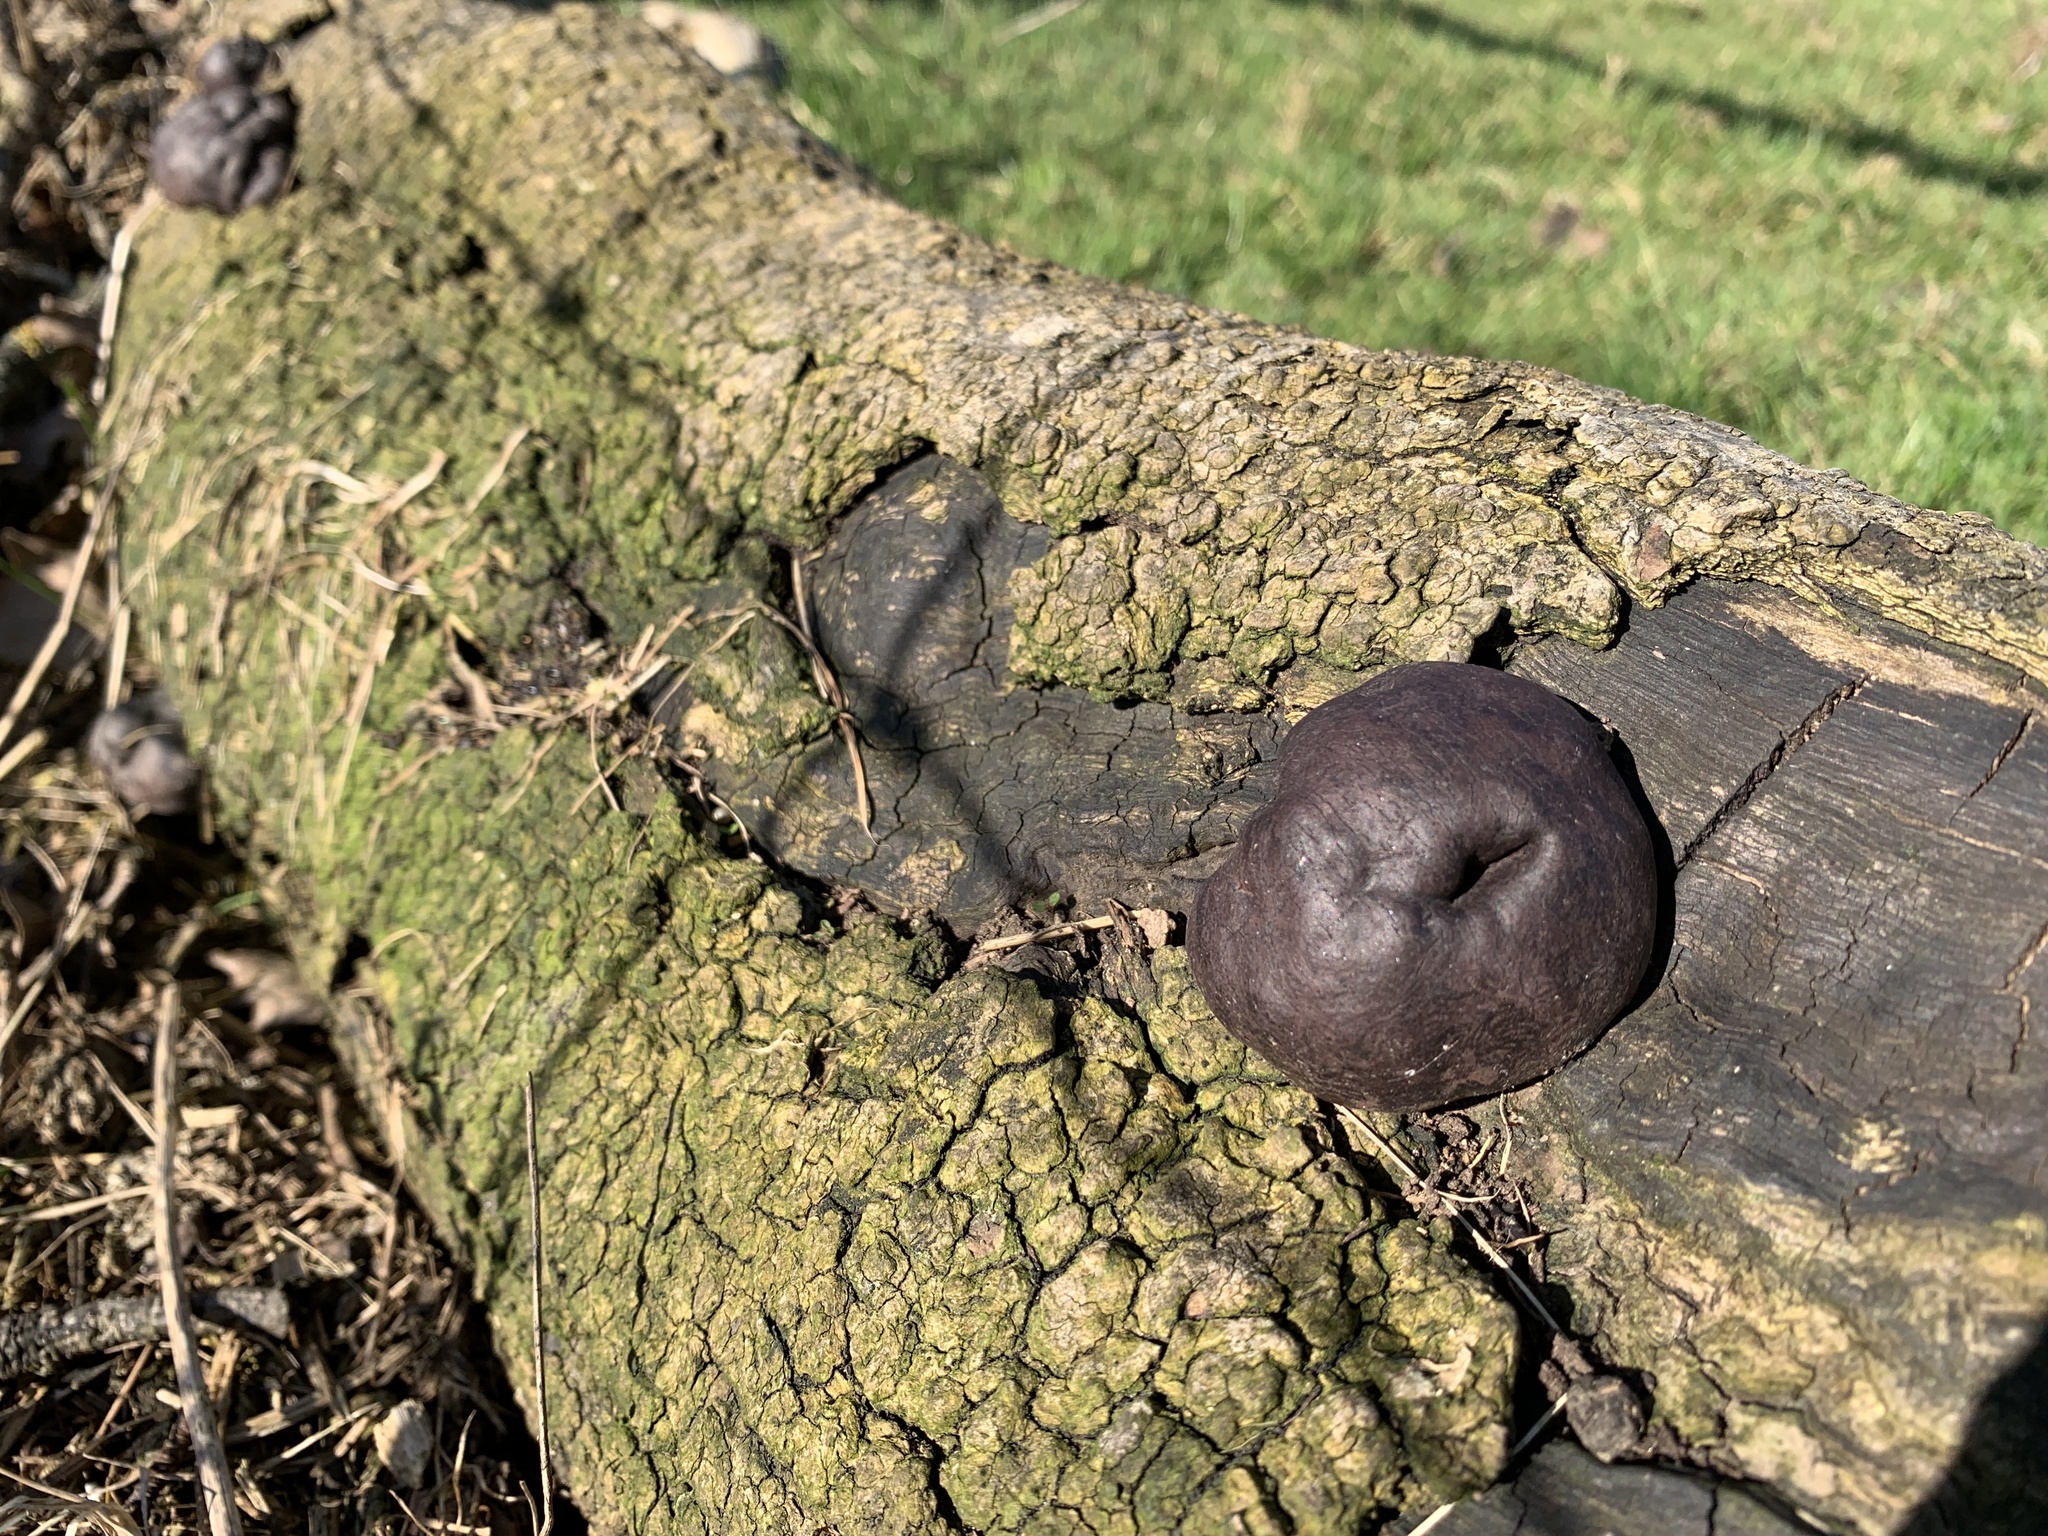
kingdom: Fungi
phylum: Ascomycota
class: Sordariomycetes
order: Xylariales
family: Hypoxylaceae
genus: Daldinia
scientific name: Daldinia concentrica
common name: Cramp balls
